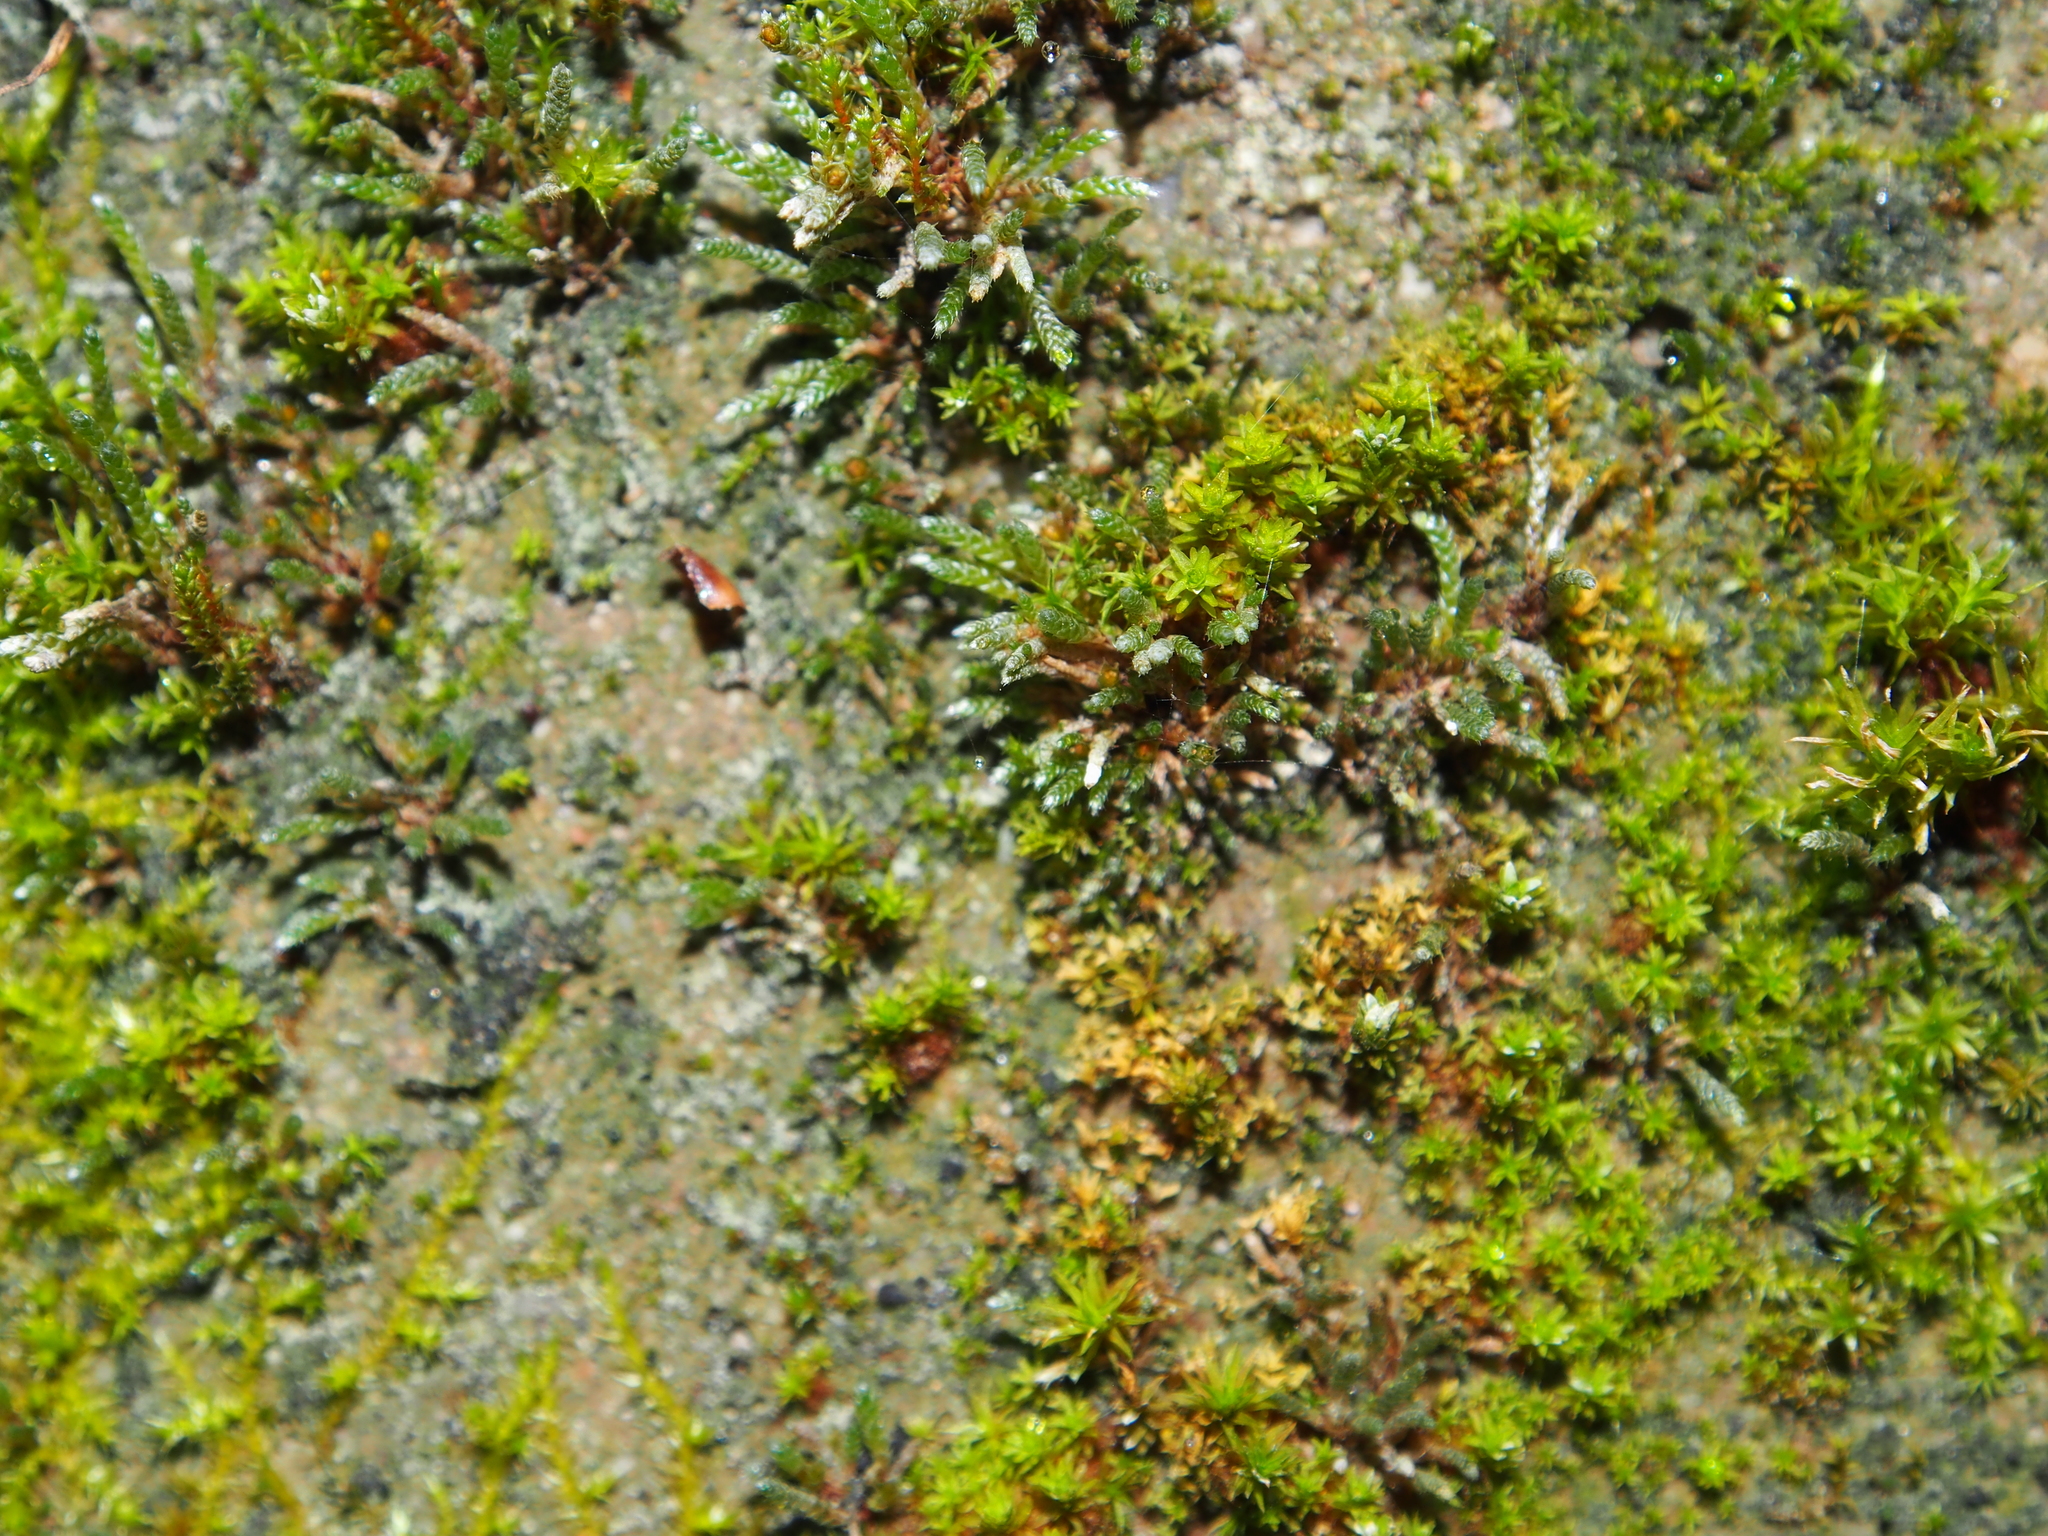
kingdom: Plantae
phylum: Bryophyta
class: Bryopsida
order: Bryales
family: Bryaceae
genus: Bryum
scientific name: Bryum argenteum
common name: Silver-moss
